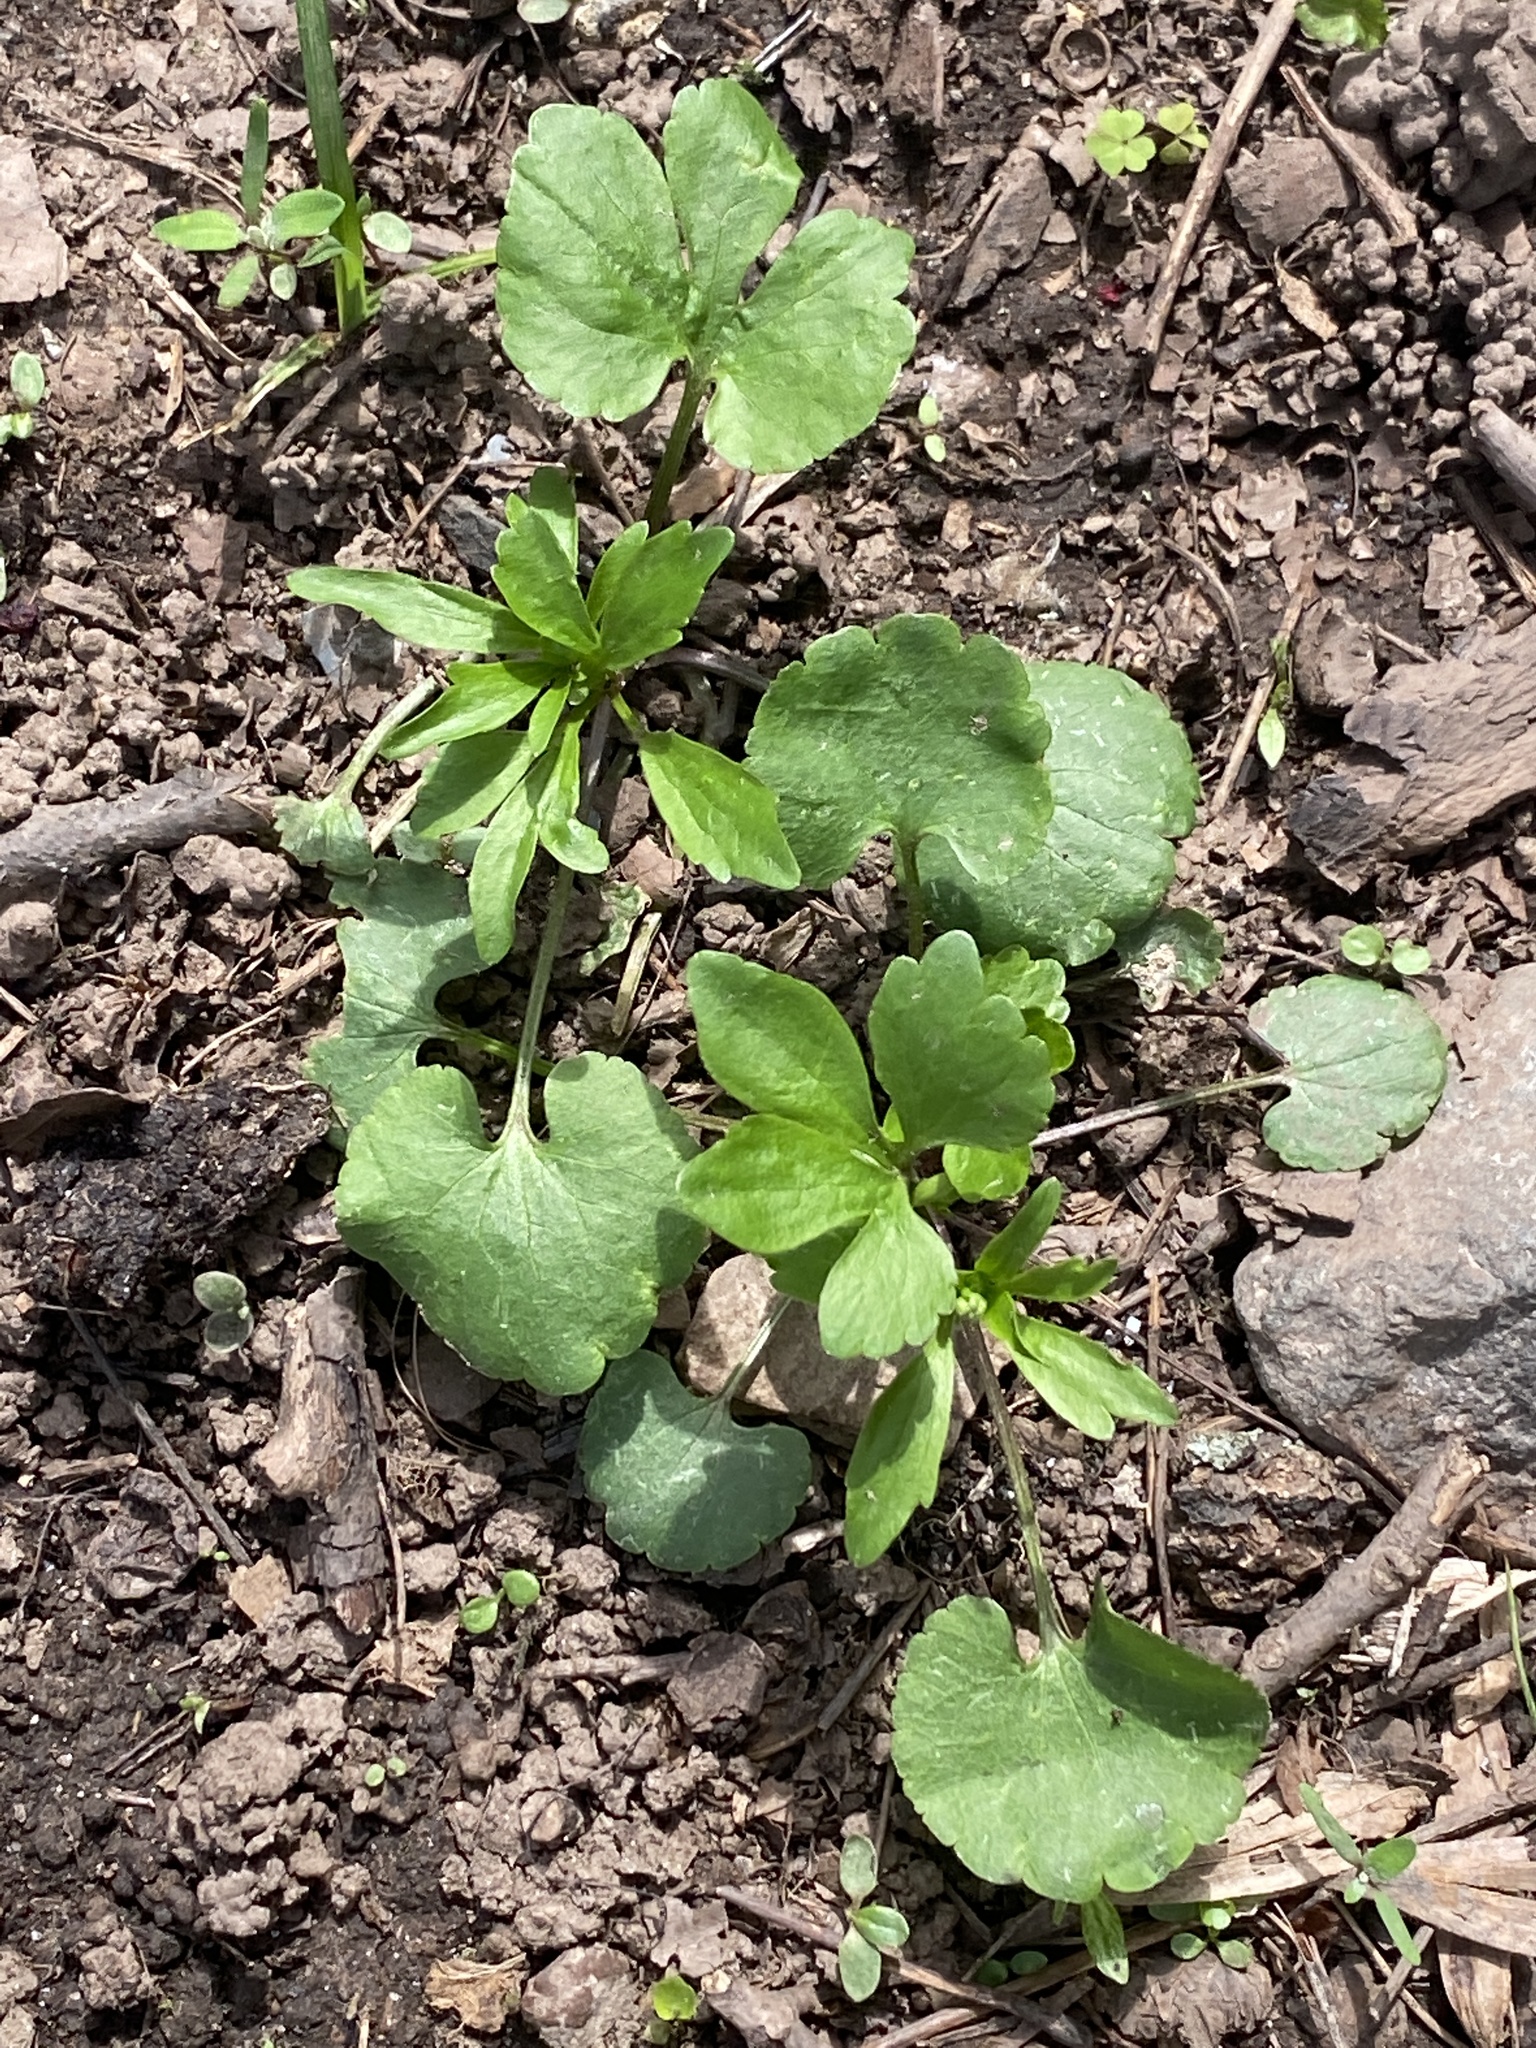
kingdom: Plantae
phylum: Tracheophyta
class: Magnoliopsida
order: Ranunculales
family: Ranunculaceae
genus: Ranunculus
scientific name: Ranunculus abortivus
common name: Early wood buttercup
